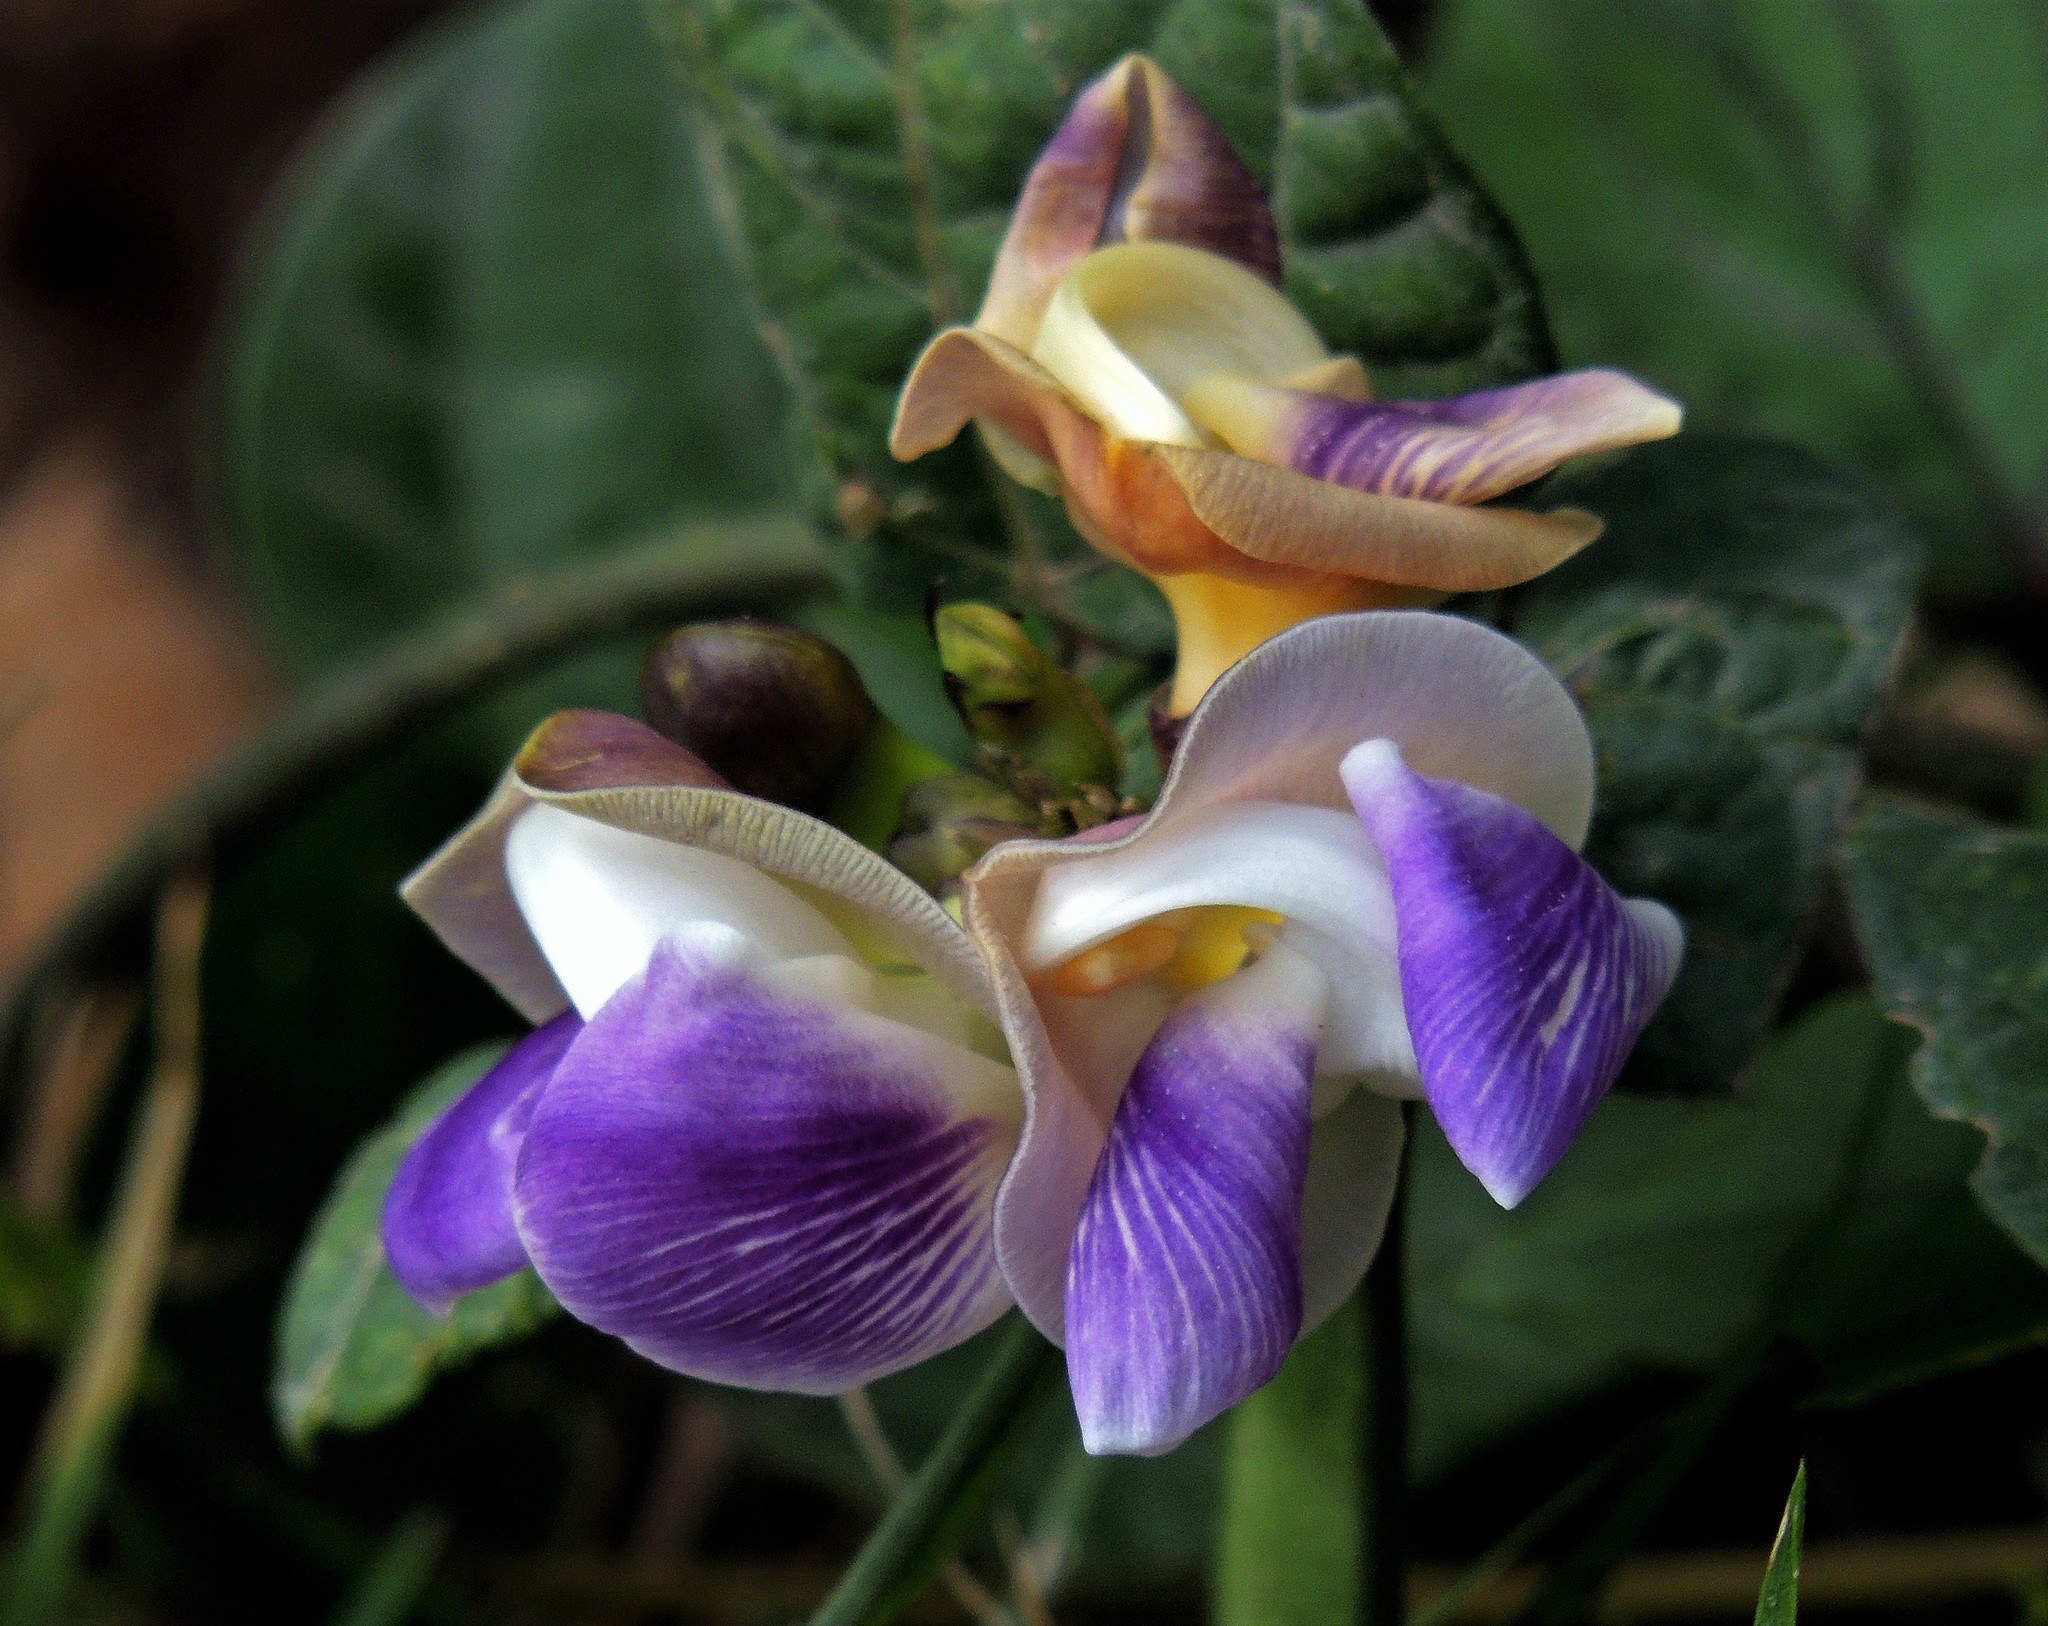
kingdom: Plantae
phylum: Tracheophyta
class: Magnoliopsida
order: Fabales
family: Fabaceae
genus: Leptospron
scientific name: Leptospron adenanthum
